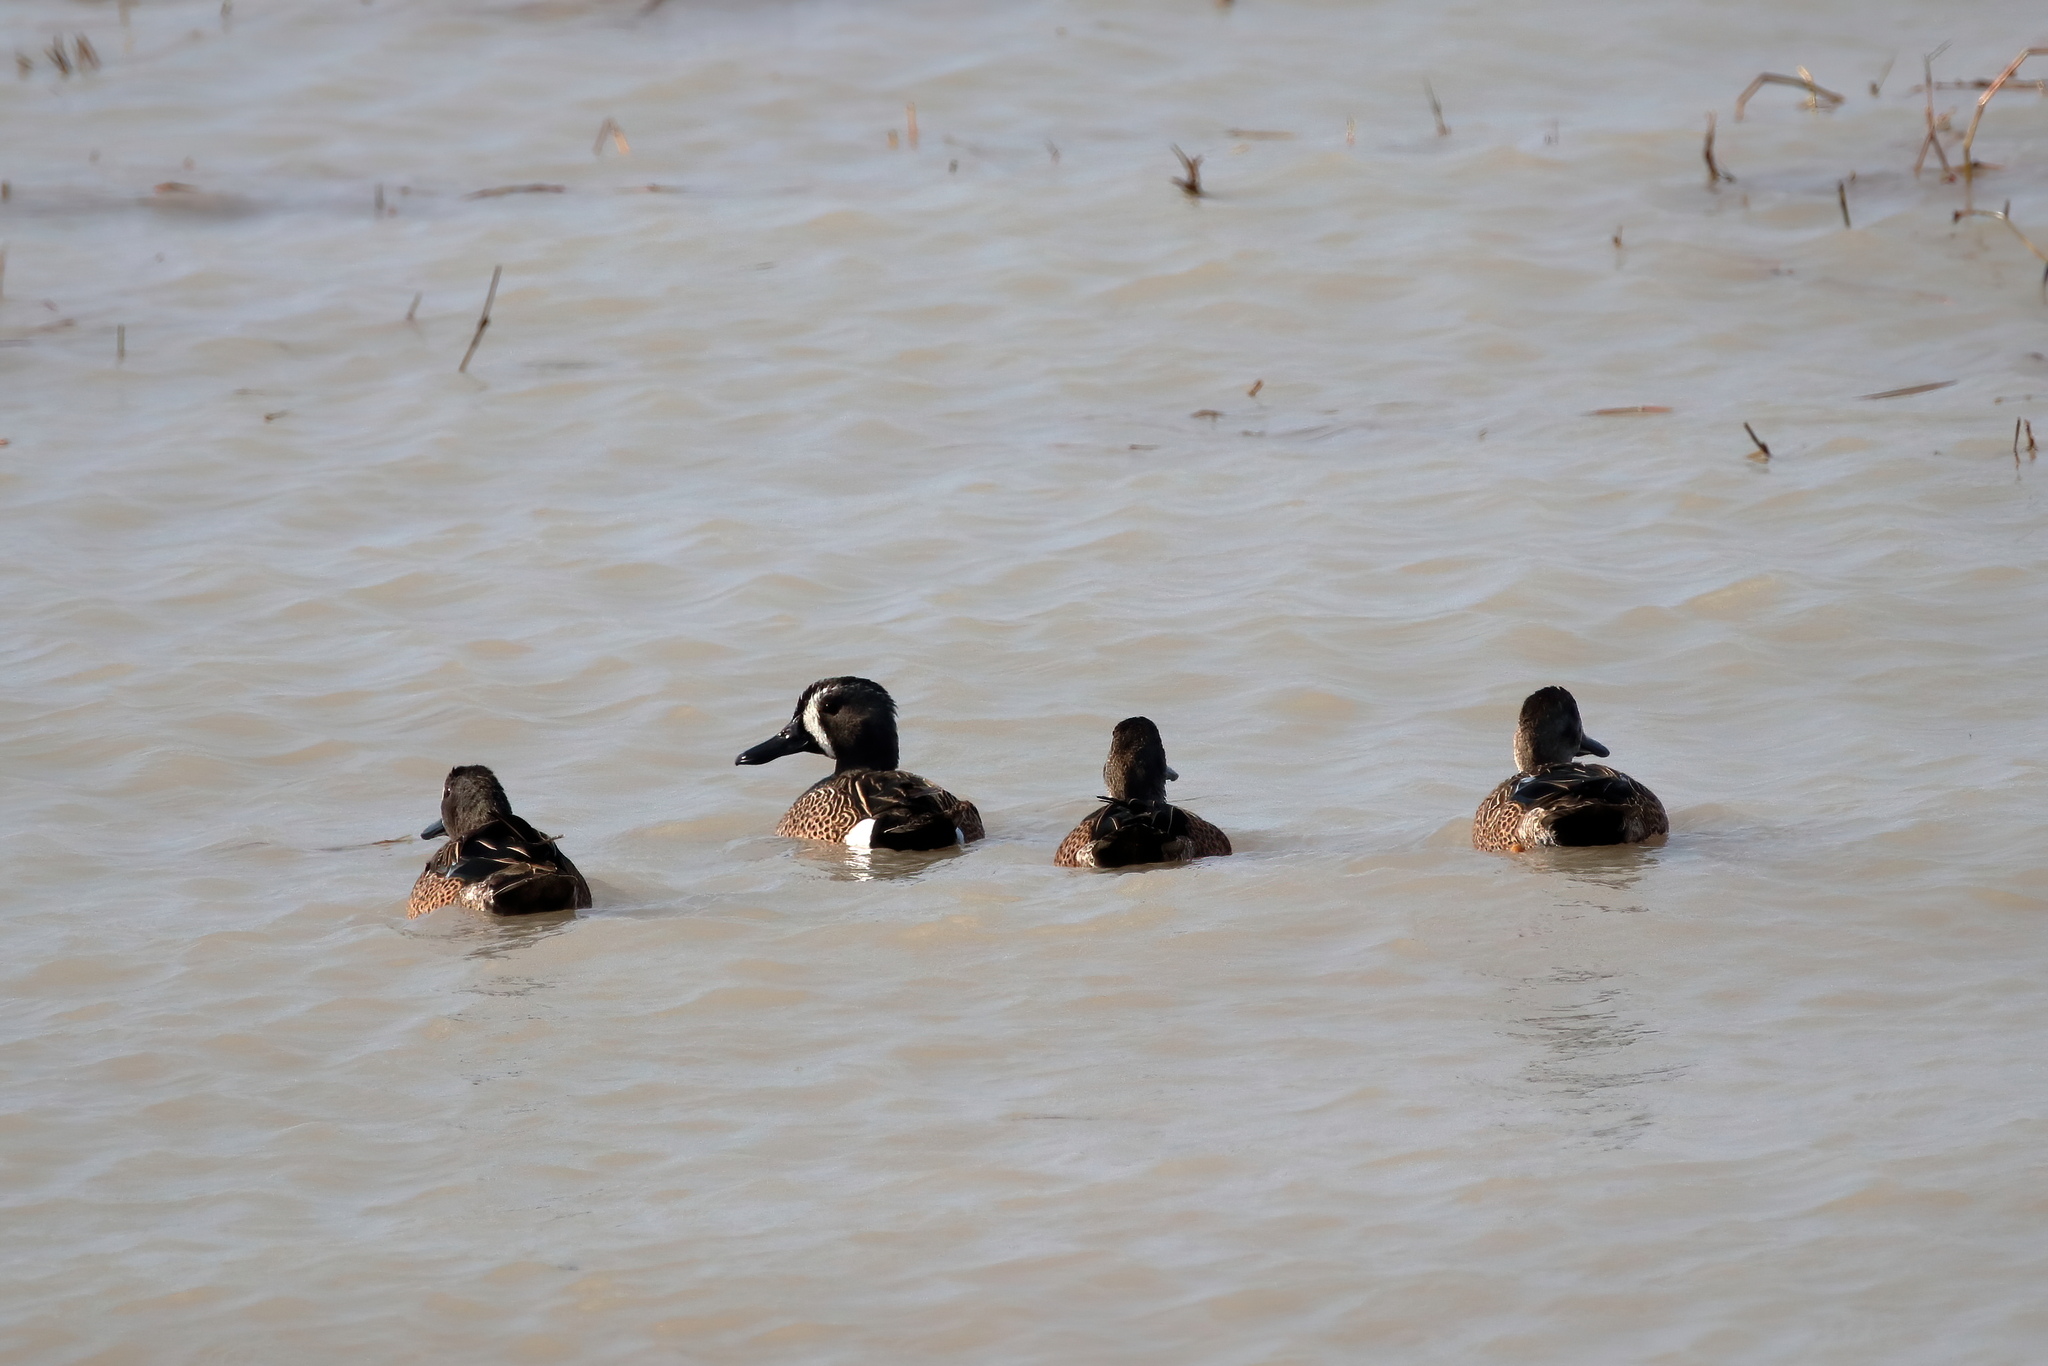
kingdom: Animalia
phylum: Chordata
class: Aves
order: Anseriformes
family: Anatidae
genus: Spatula
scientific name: Spatula discors
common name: Blue-winged teal
